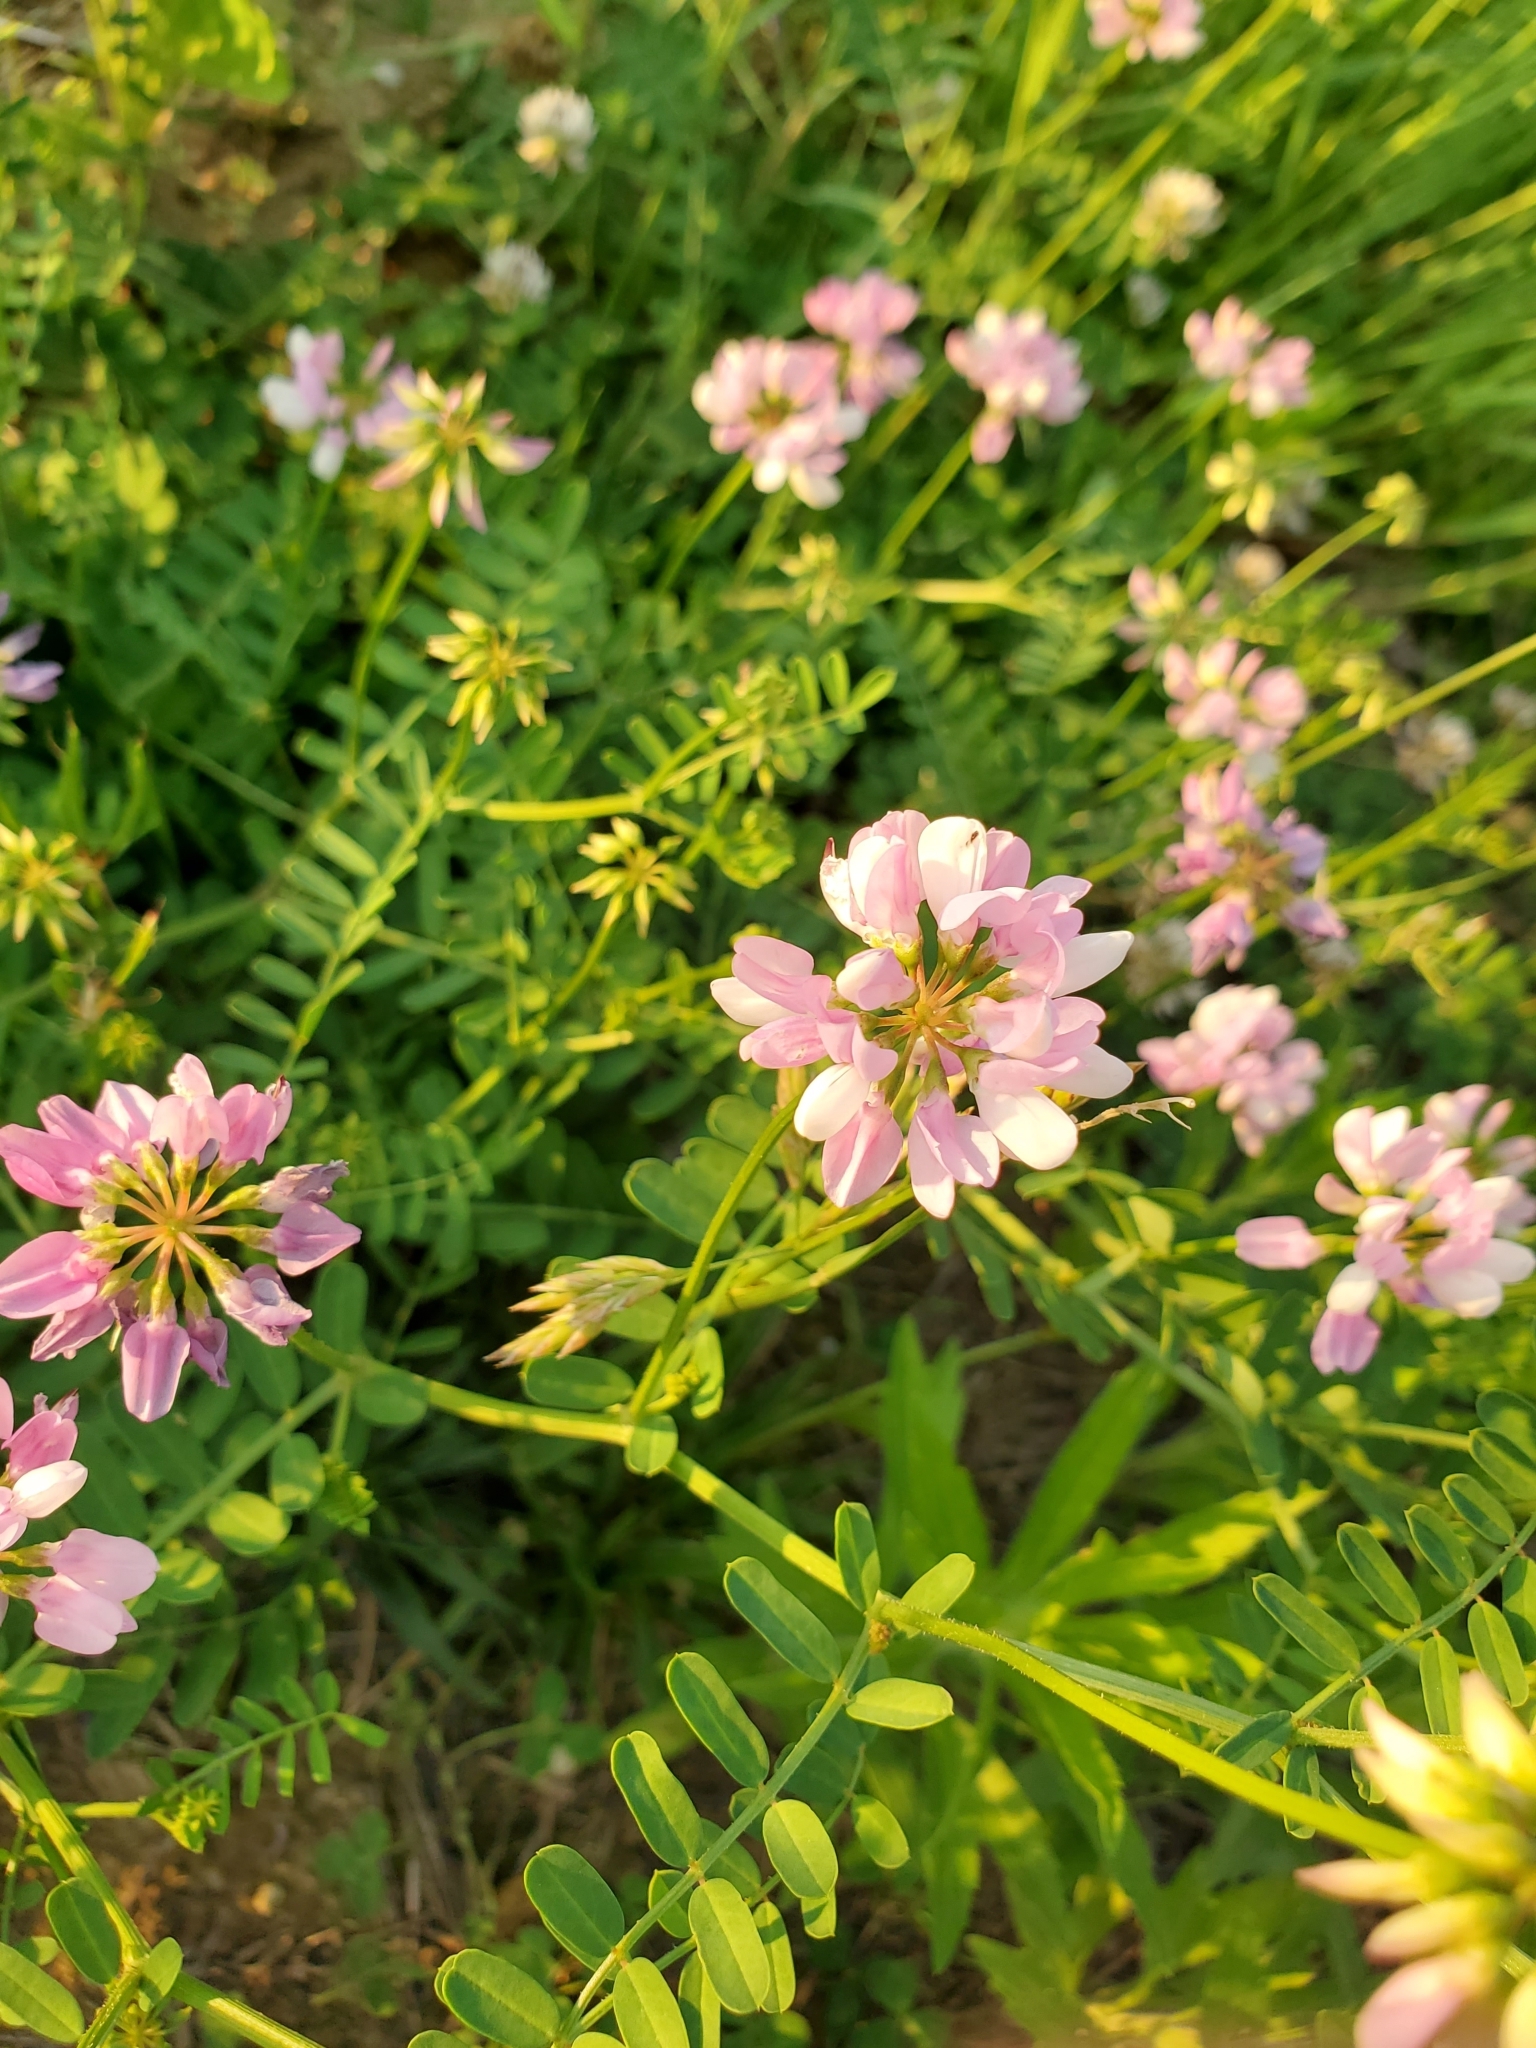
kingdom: Plantae
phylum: Tracheophyta
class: Magnoliopsida
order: Fabales
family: Fabaceae
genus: Coronilla
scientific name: Coronilla varia
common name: Crownvetch
